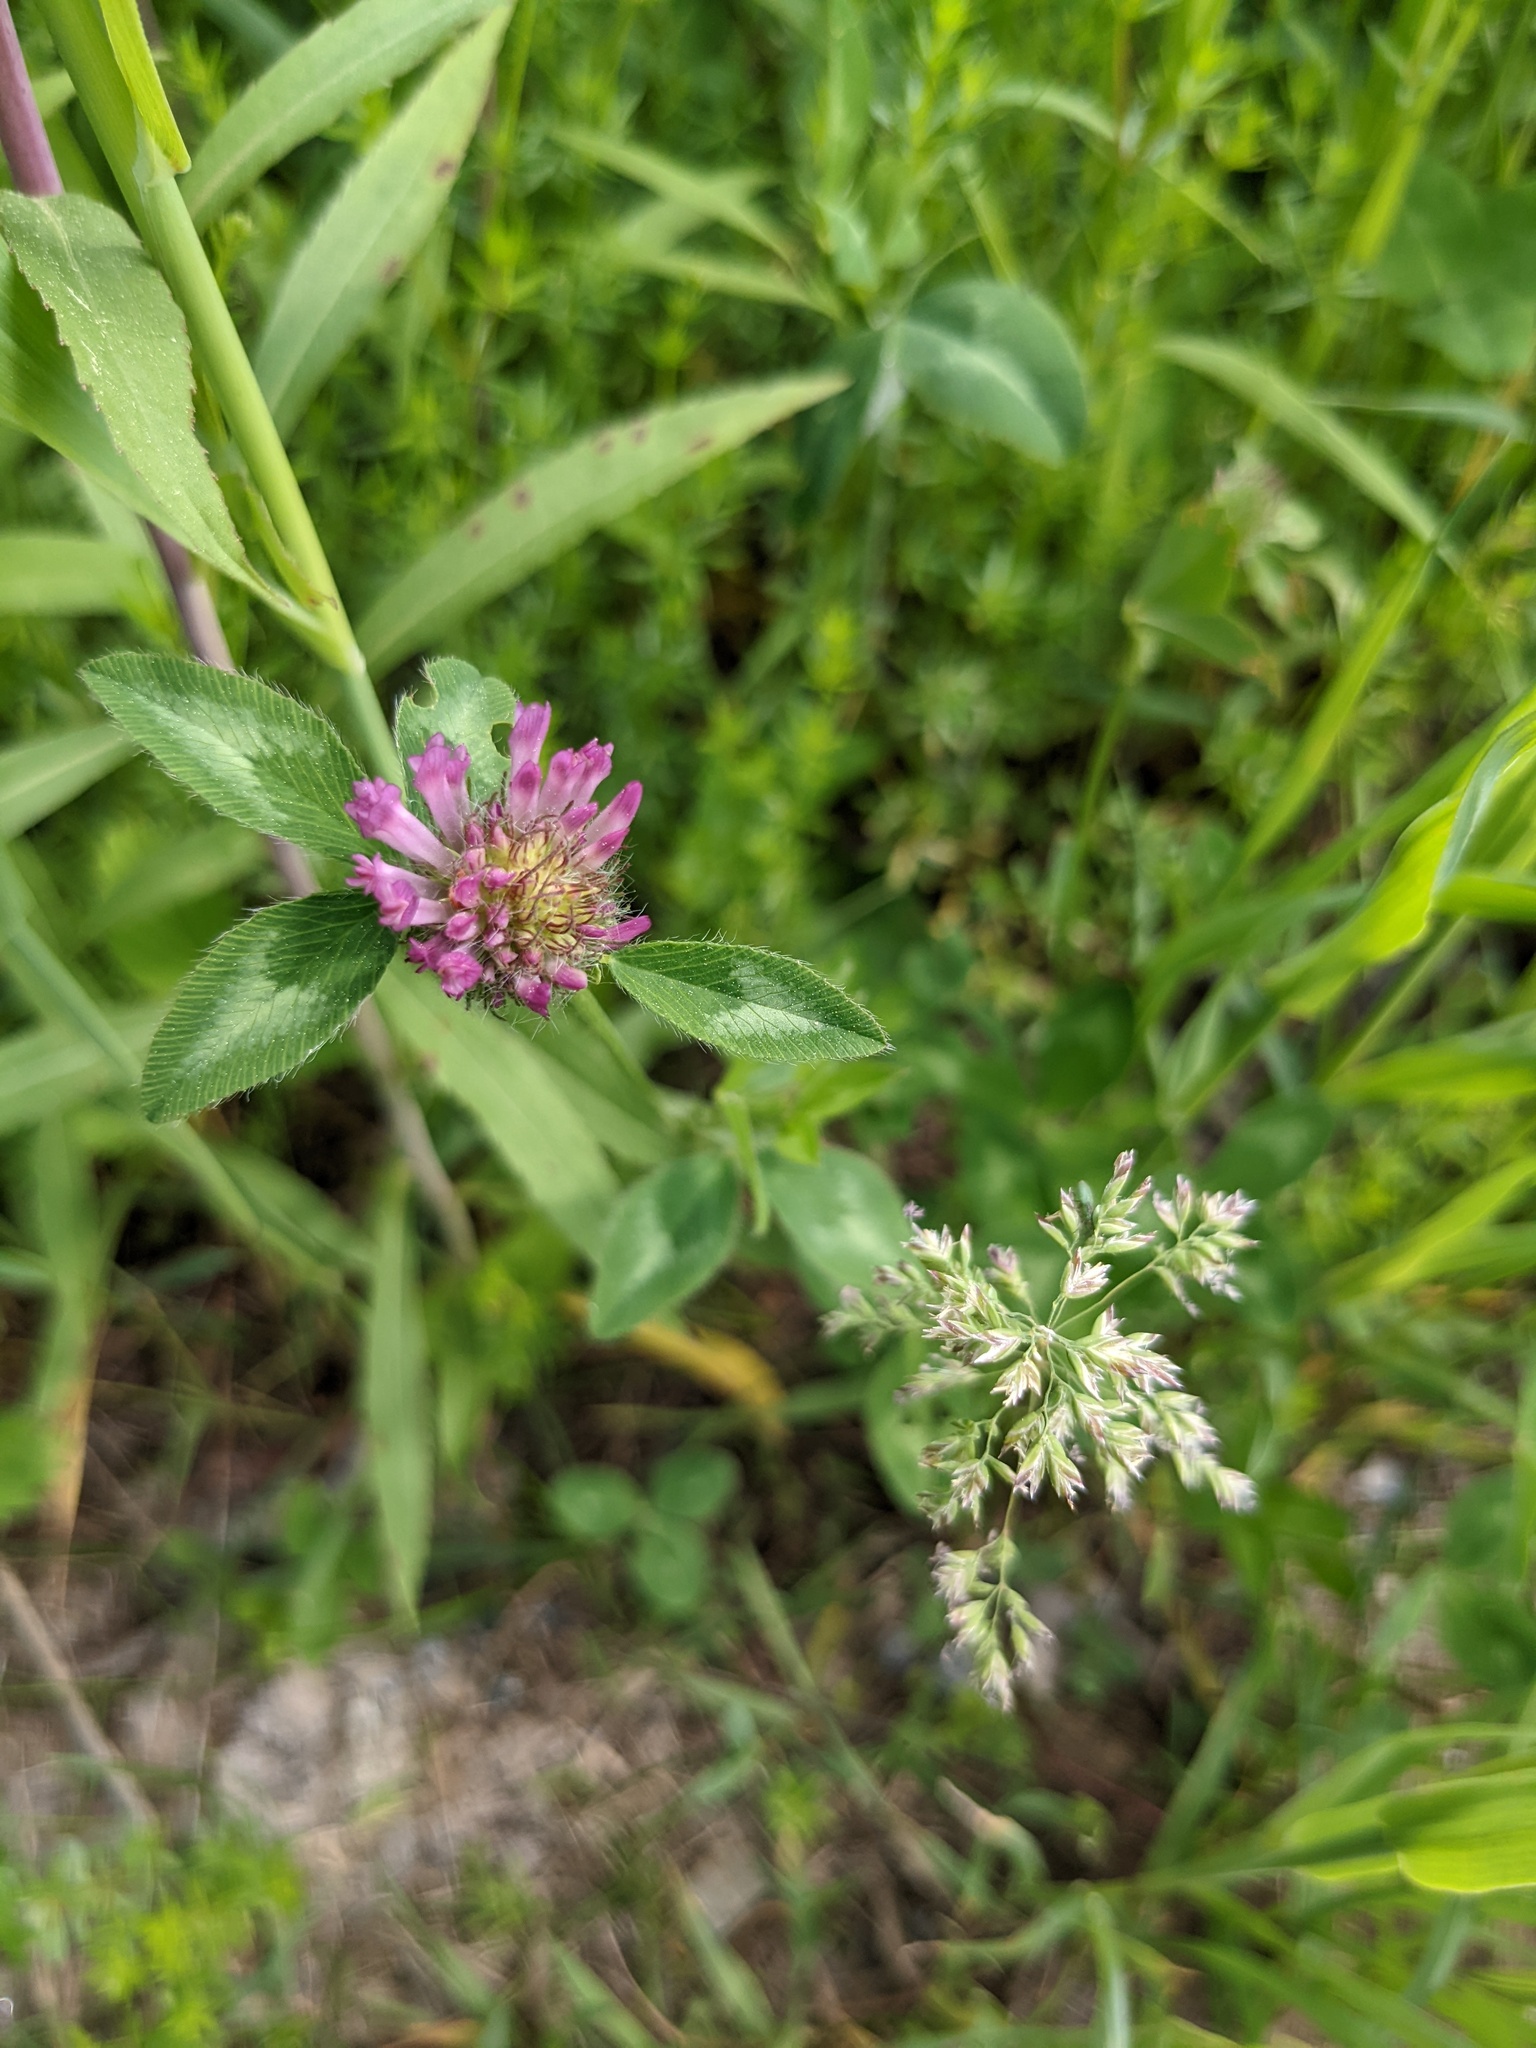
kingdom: Plantae
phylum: Tracheophyta
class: Magnoliopsida
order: Fabales
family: Fabaceae
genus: Trifolium
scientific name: Trifolium pratense
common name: Red clover
